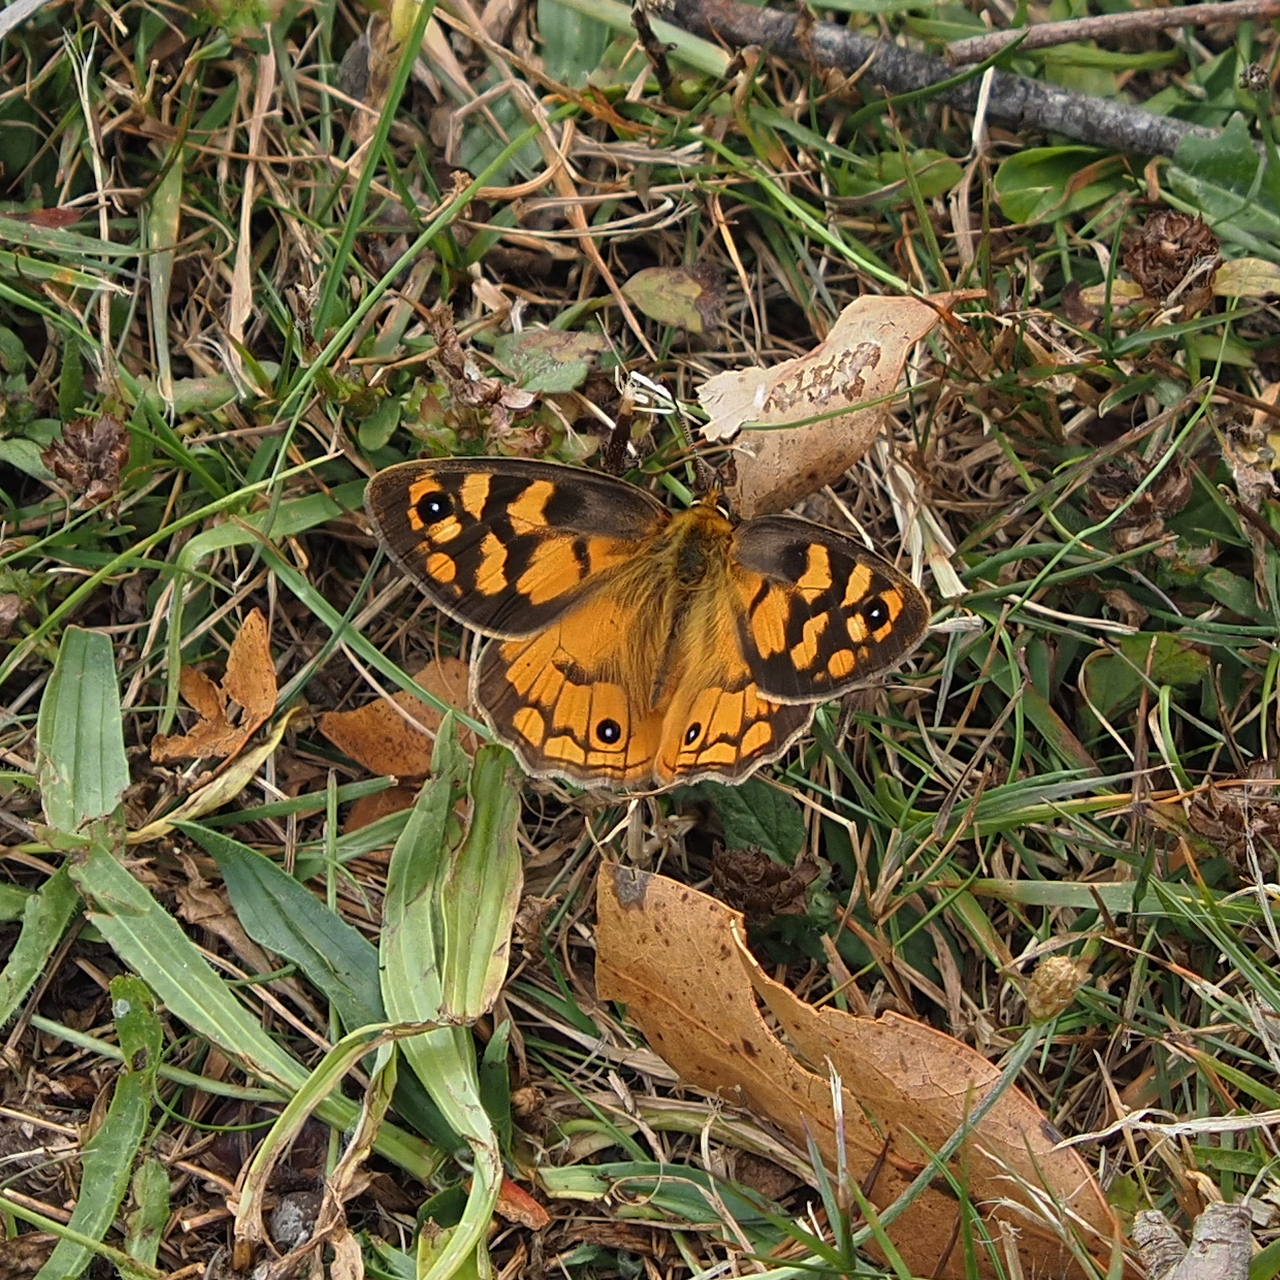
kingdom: Animalia
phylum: Arthropoda
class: Insecta
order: Lepidoptera
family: Nymphalidae
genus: Heteronympha
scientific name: Heteronympha penelope
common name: Shouldered brown
